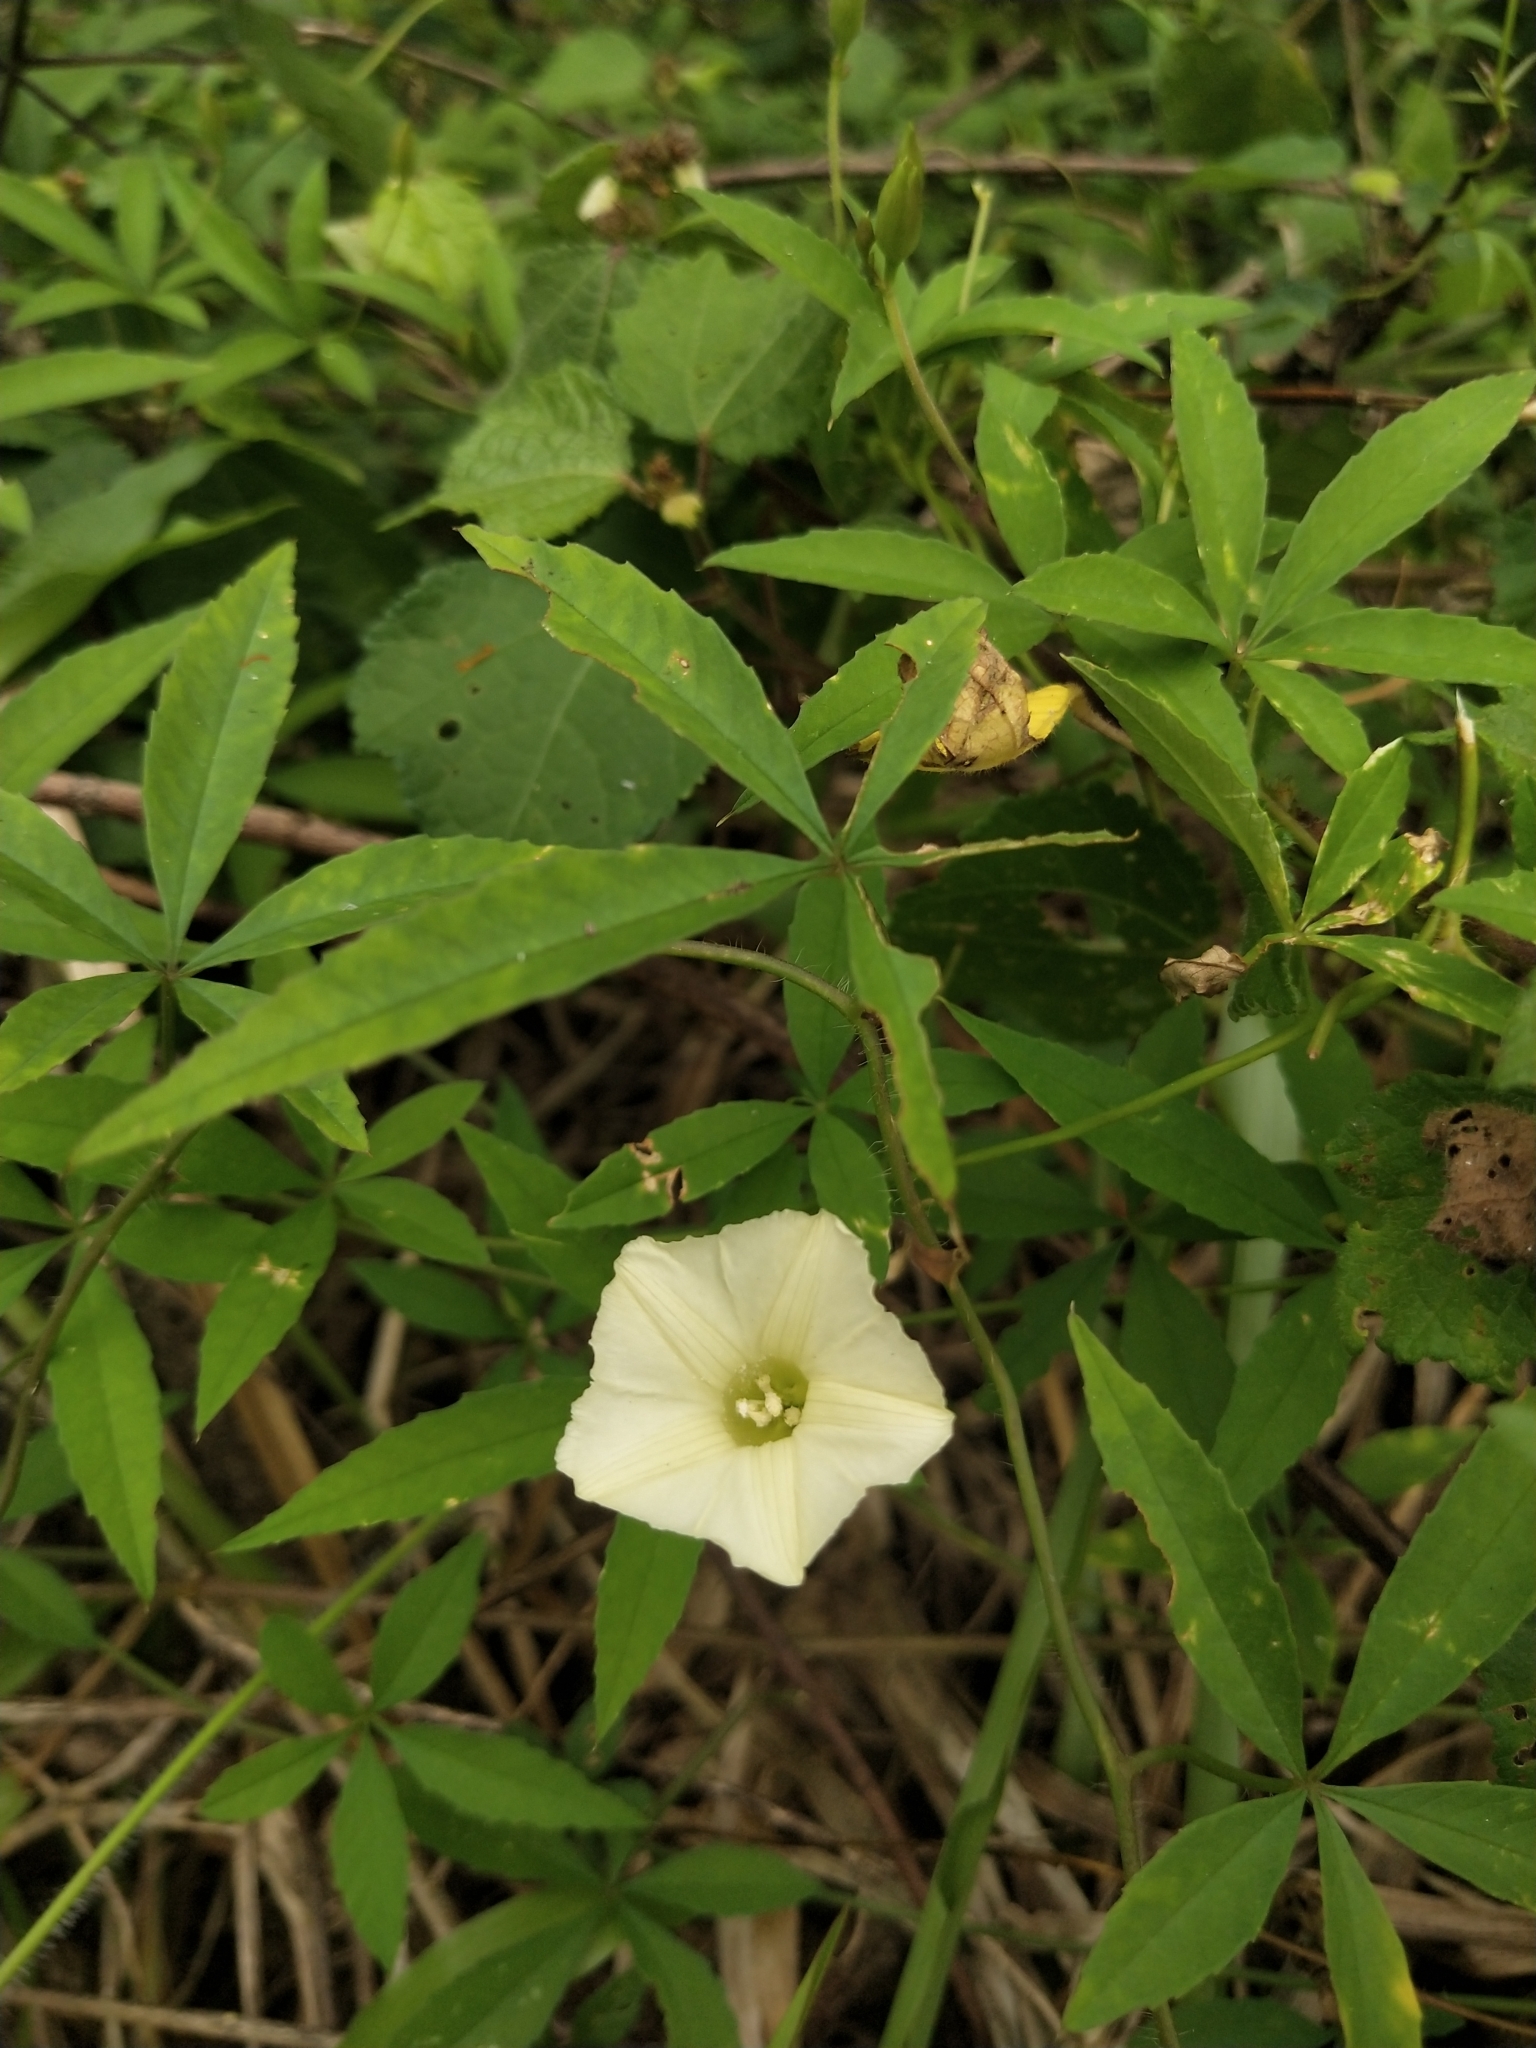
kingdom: Plantae
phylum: Tracheophyta
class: Magnoliopsida
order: Solanales
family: Convolvulaceae
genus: Distimake
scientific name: Distimake quinquefolius
